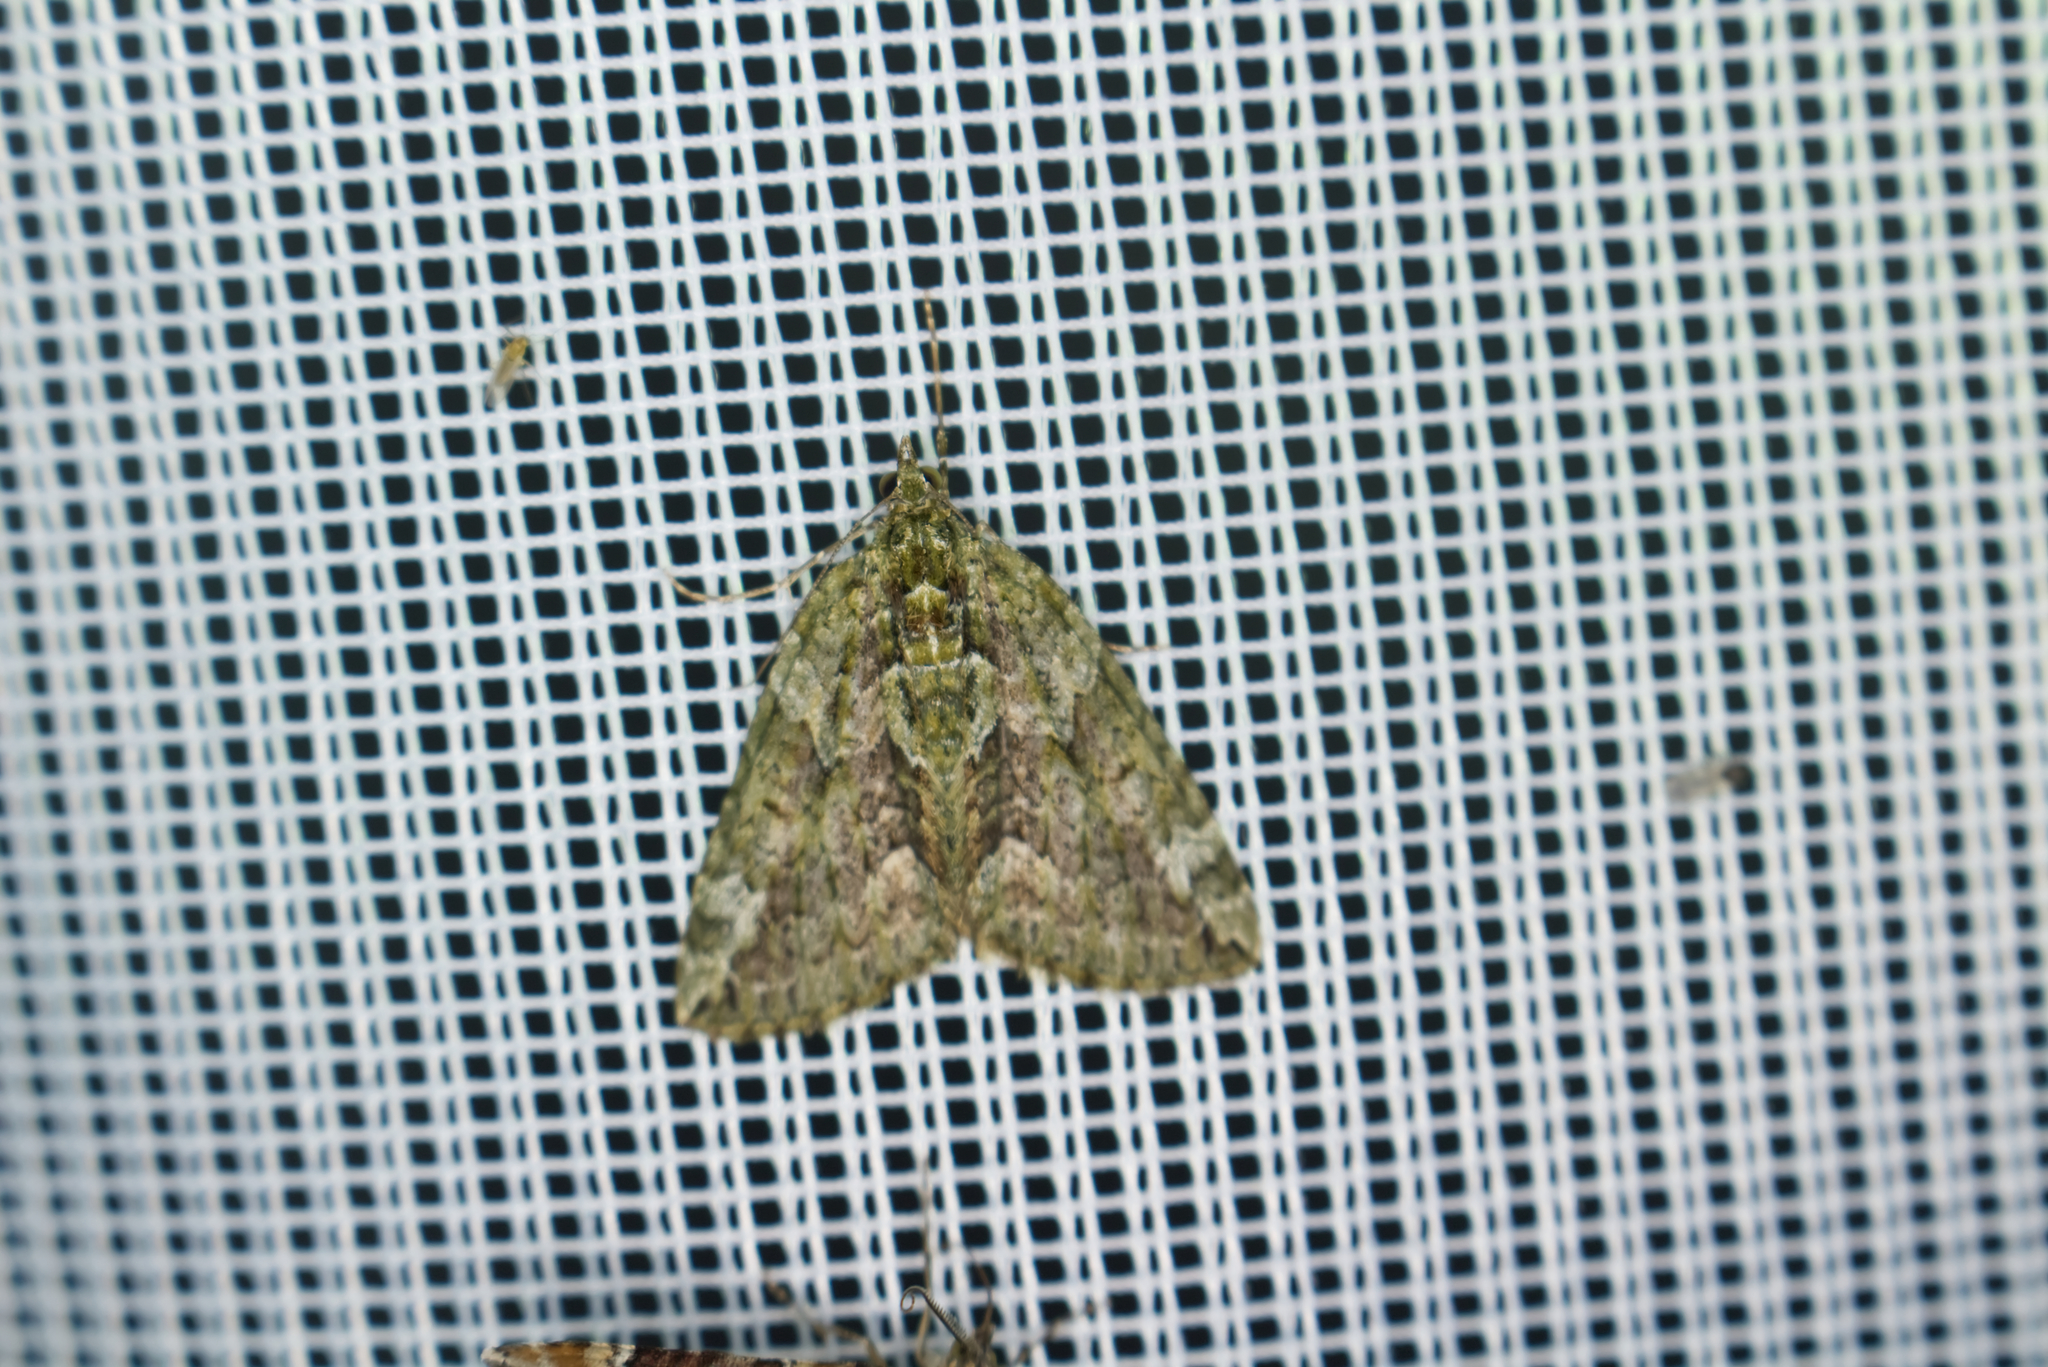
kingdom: Animalia
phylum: Arthropoda
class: Insecta
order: Lepidoptera
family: Geometridae
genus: Chloroclysta
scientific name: Chloroclysta siterata
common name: Red-green carpet
